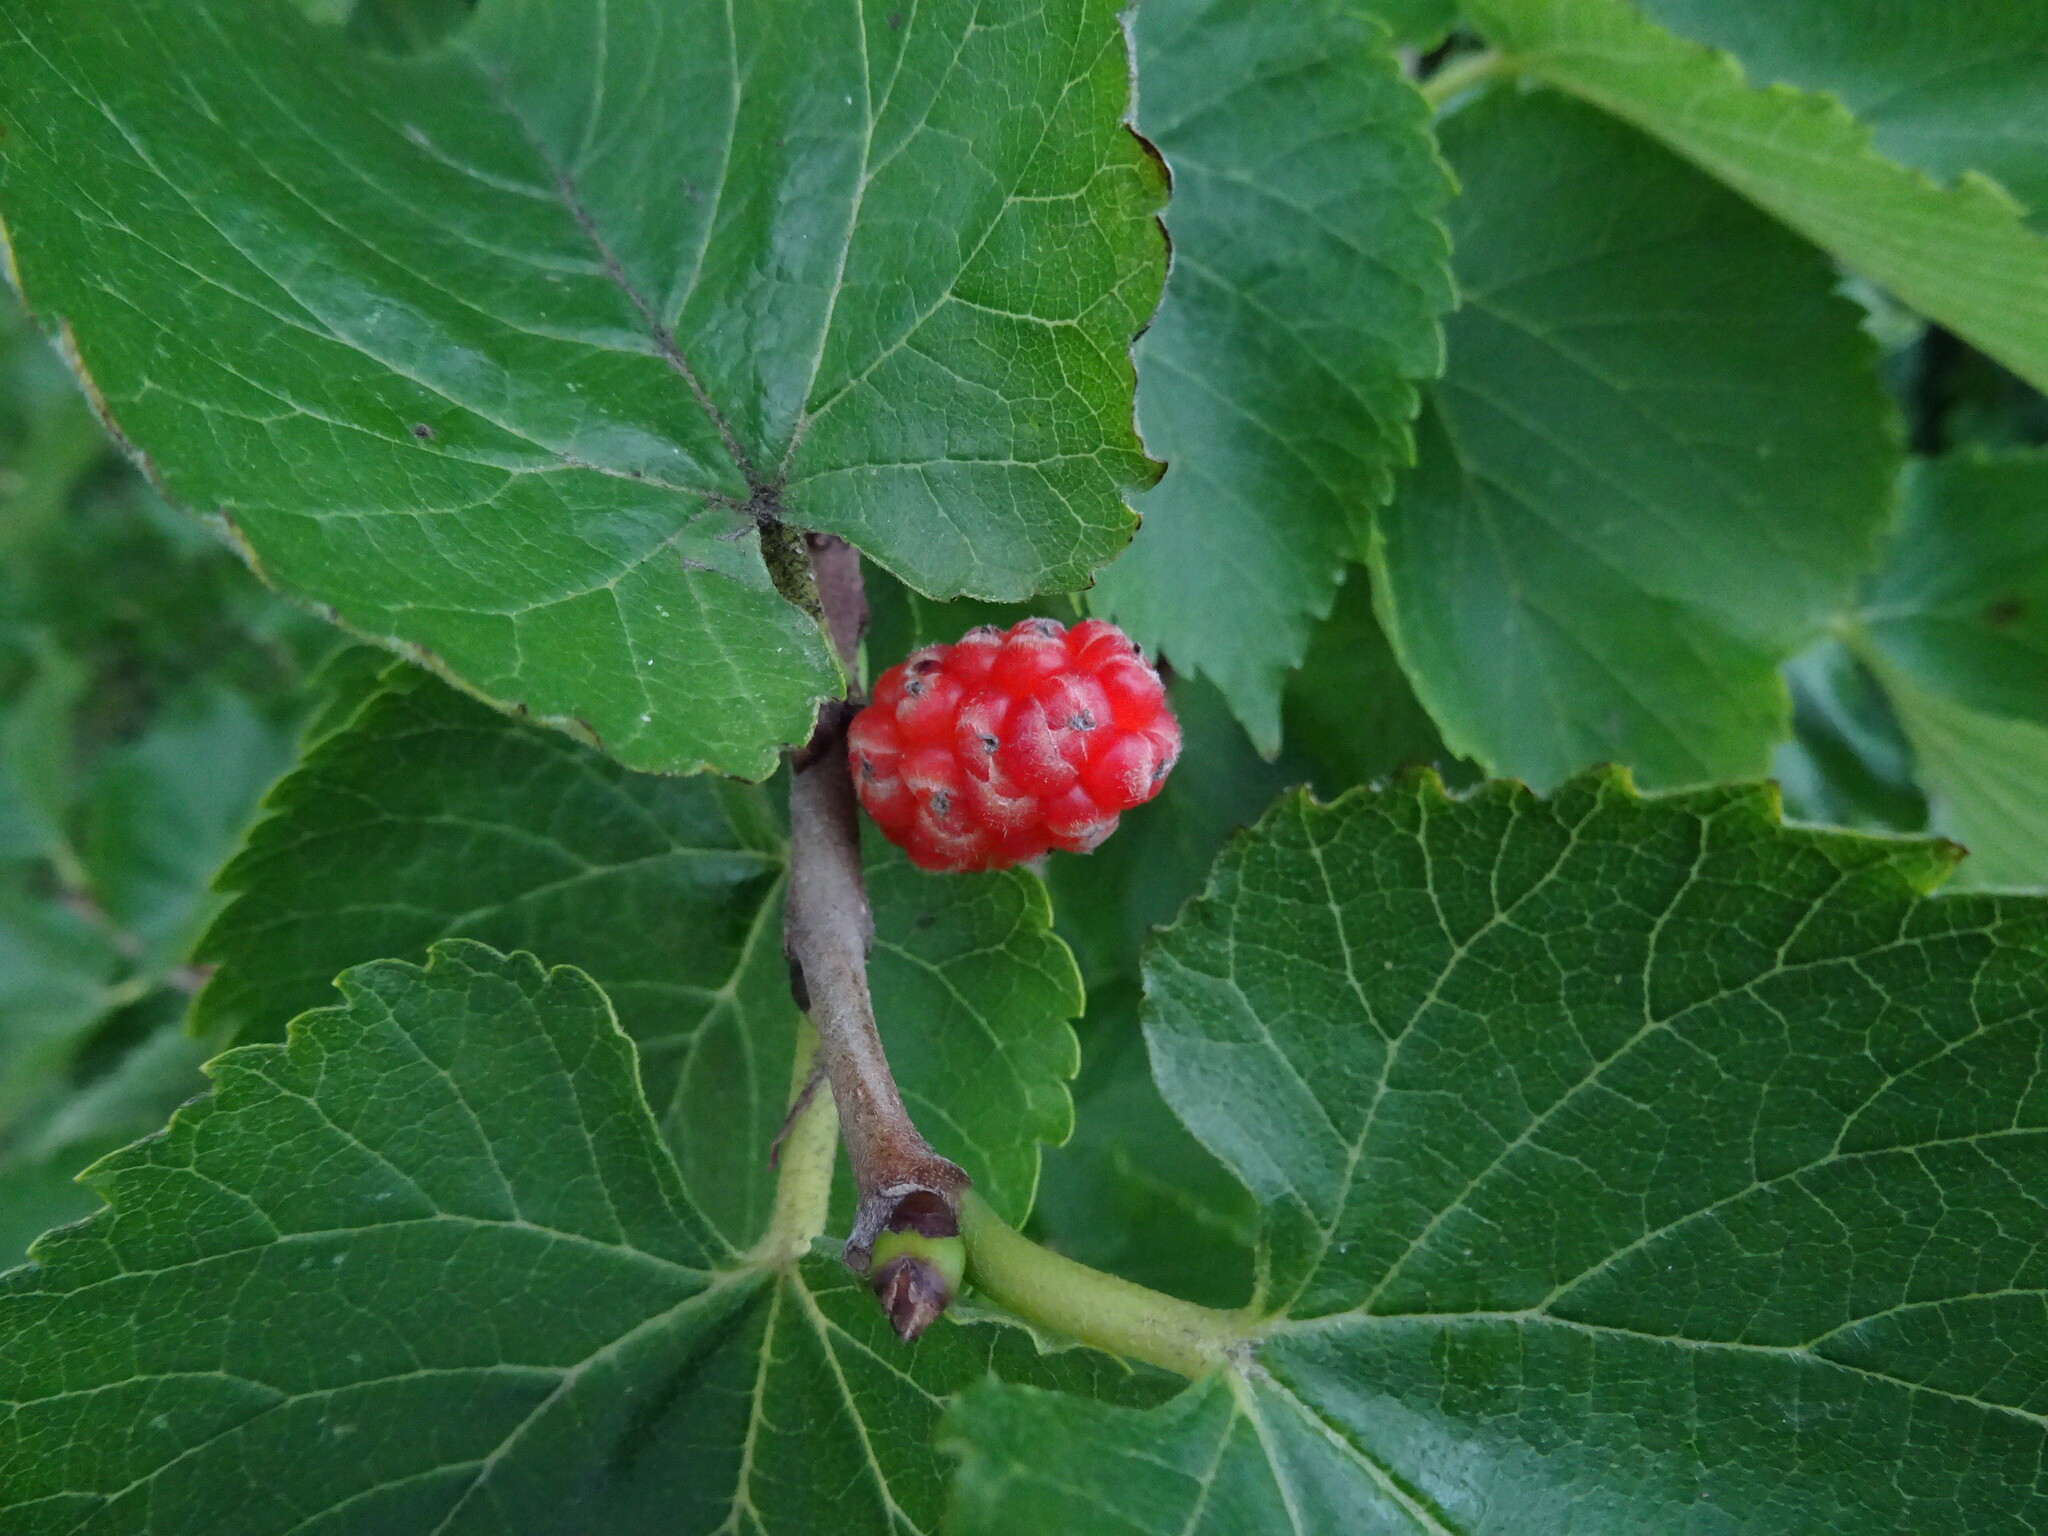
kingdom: Plantae
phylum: Tracheophyta
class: Magnoliopsida
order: Rosales
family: Moraceae
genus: Morus
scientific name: Morus nigra
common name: Black mulberry
